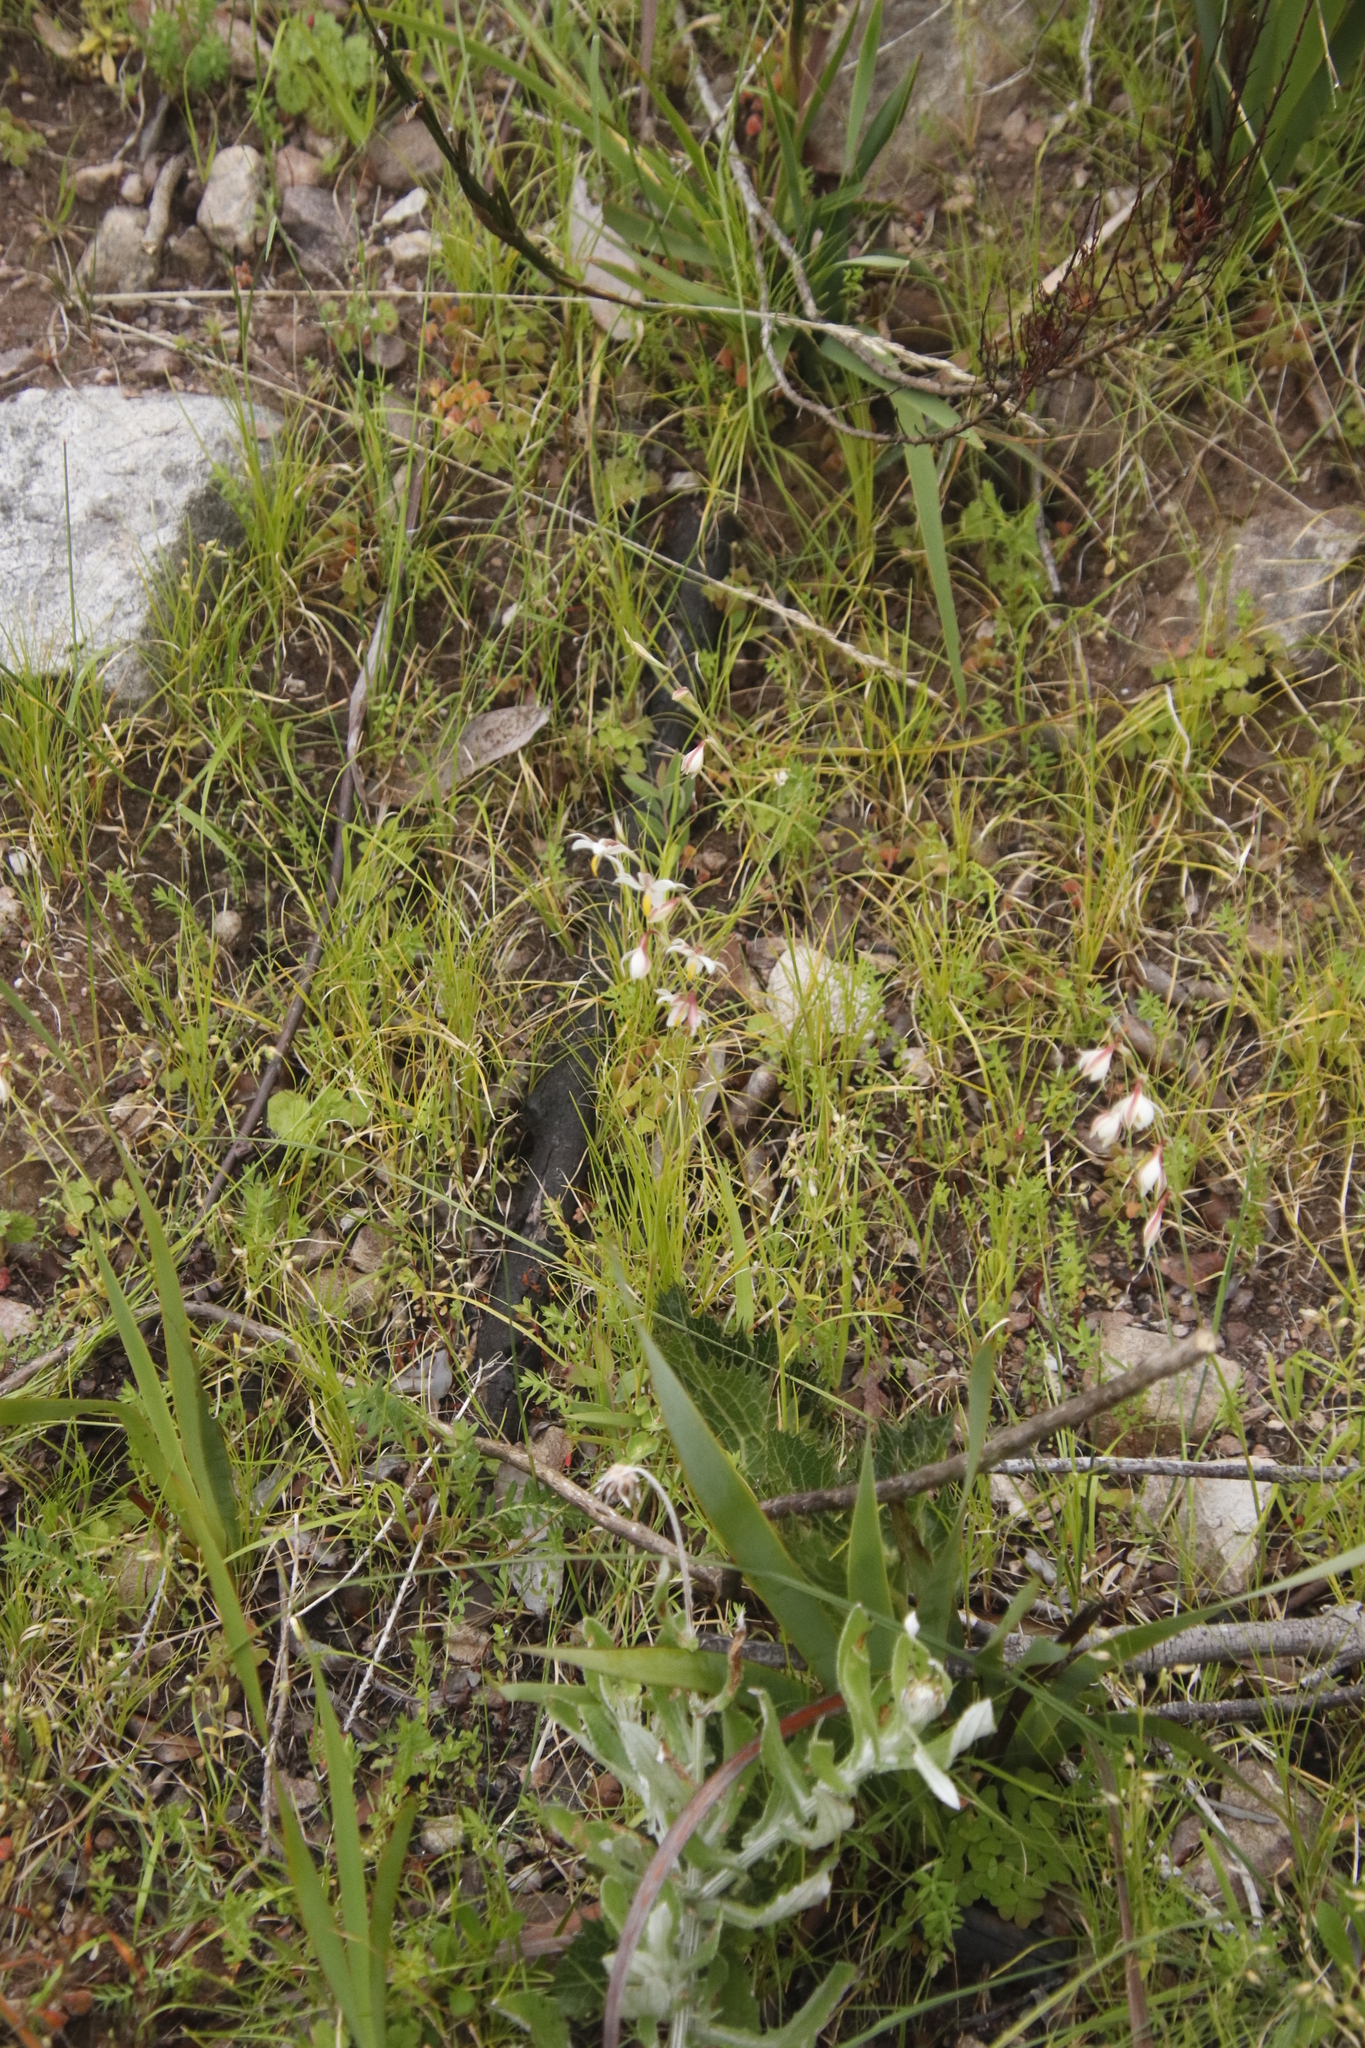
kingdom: Plantae
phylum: Tracheophyta
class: Liliopsida
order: Asparagales
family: Iridaceae
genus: Hesperantha
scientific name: Hesperantha falcata
